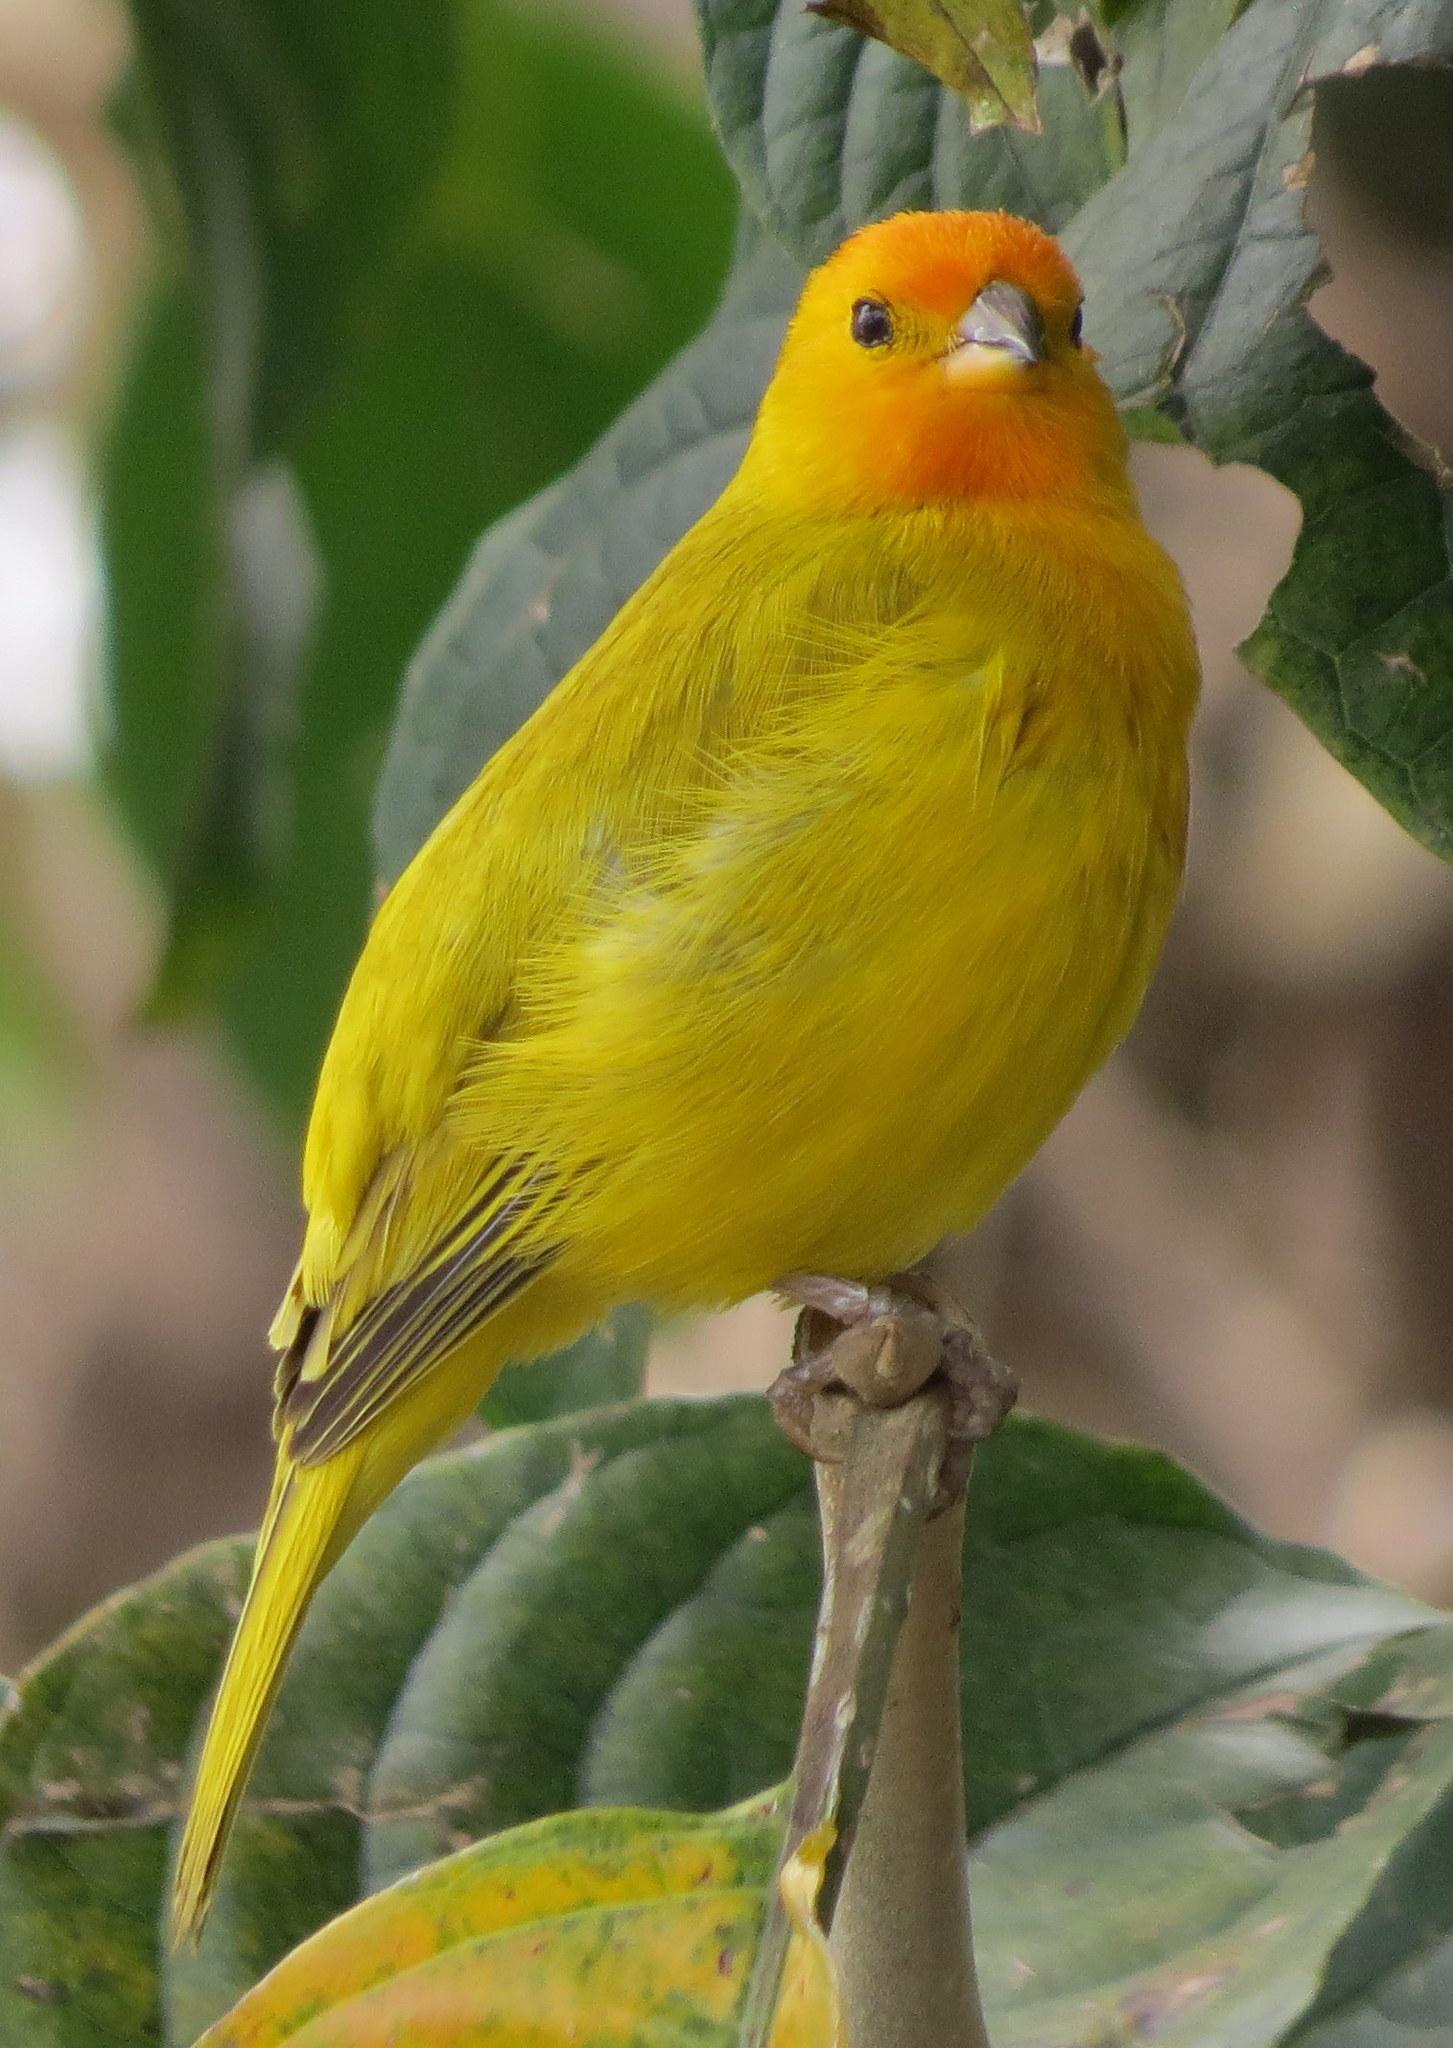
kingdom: Animalia
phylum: Chordata
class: Aves
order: Passeriformes
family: Thraupidae
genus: Sicalis
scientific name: Sicalis flaveola
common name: Saffron finch
